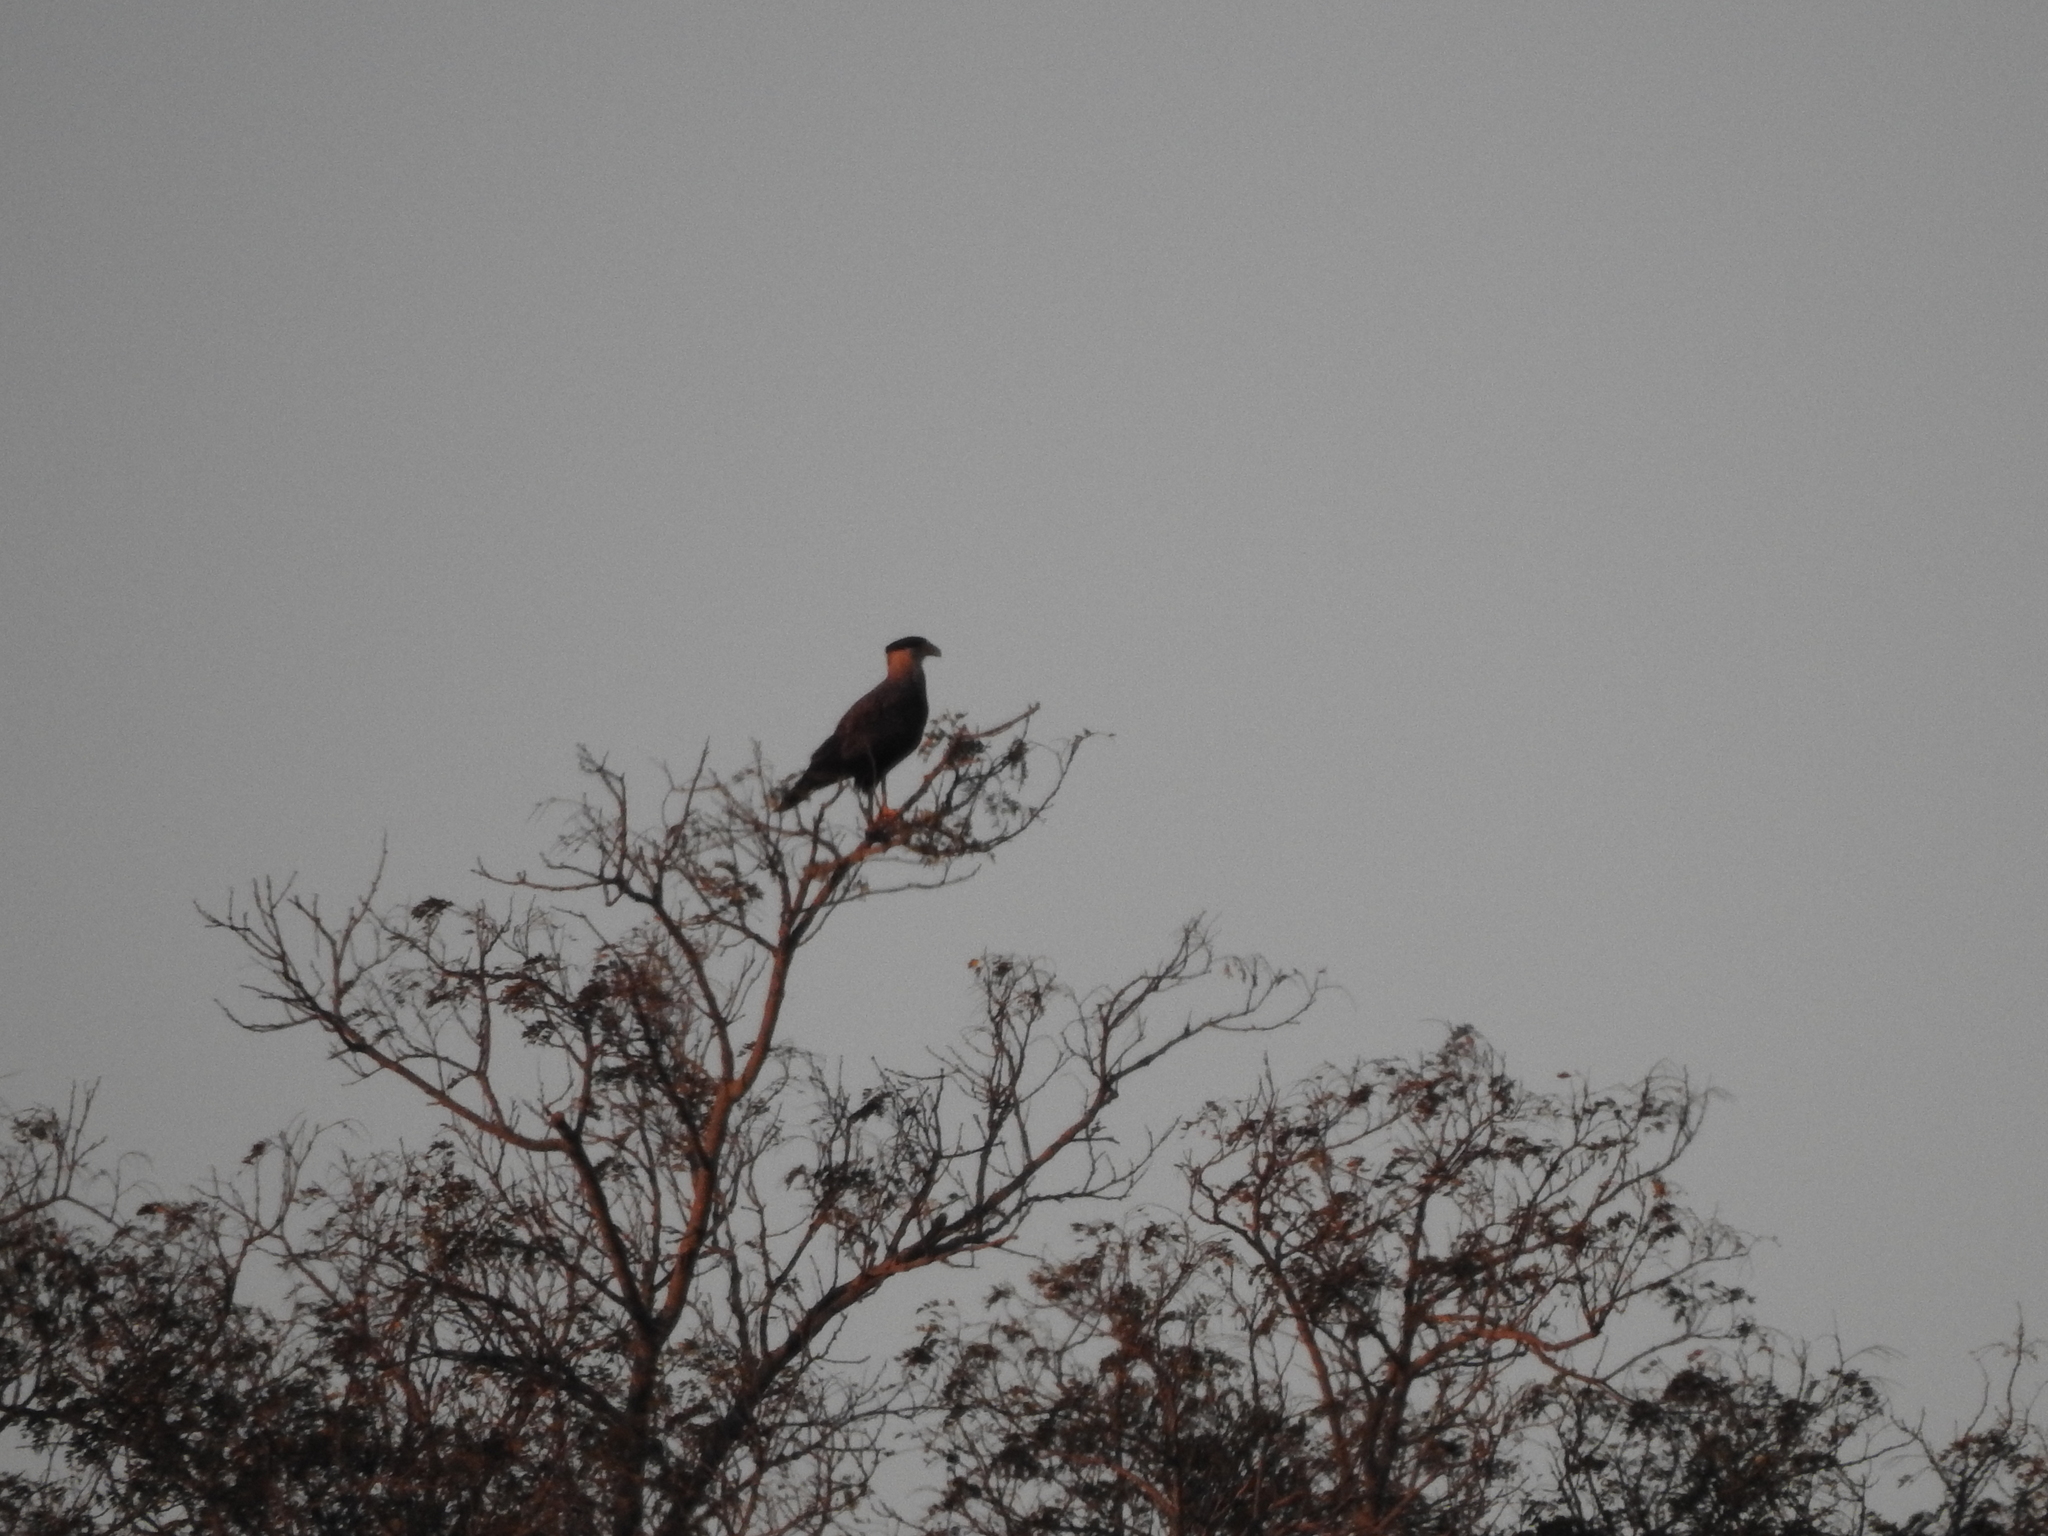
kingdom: Animalia
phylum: Chordata
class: Aves
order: Falconiformes
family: Falconidae
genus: Caracara
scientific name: Caracara plancus
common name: Southern caracara
